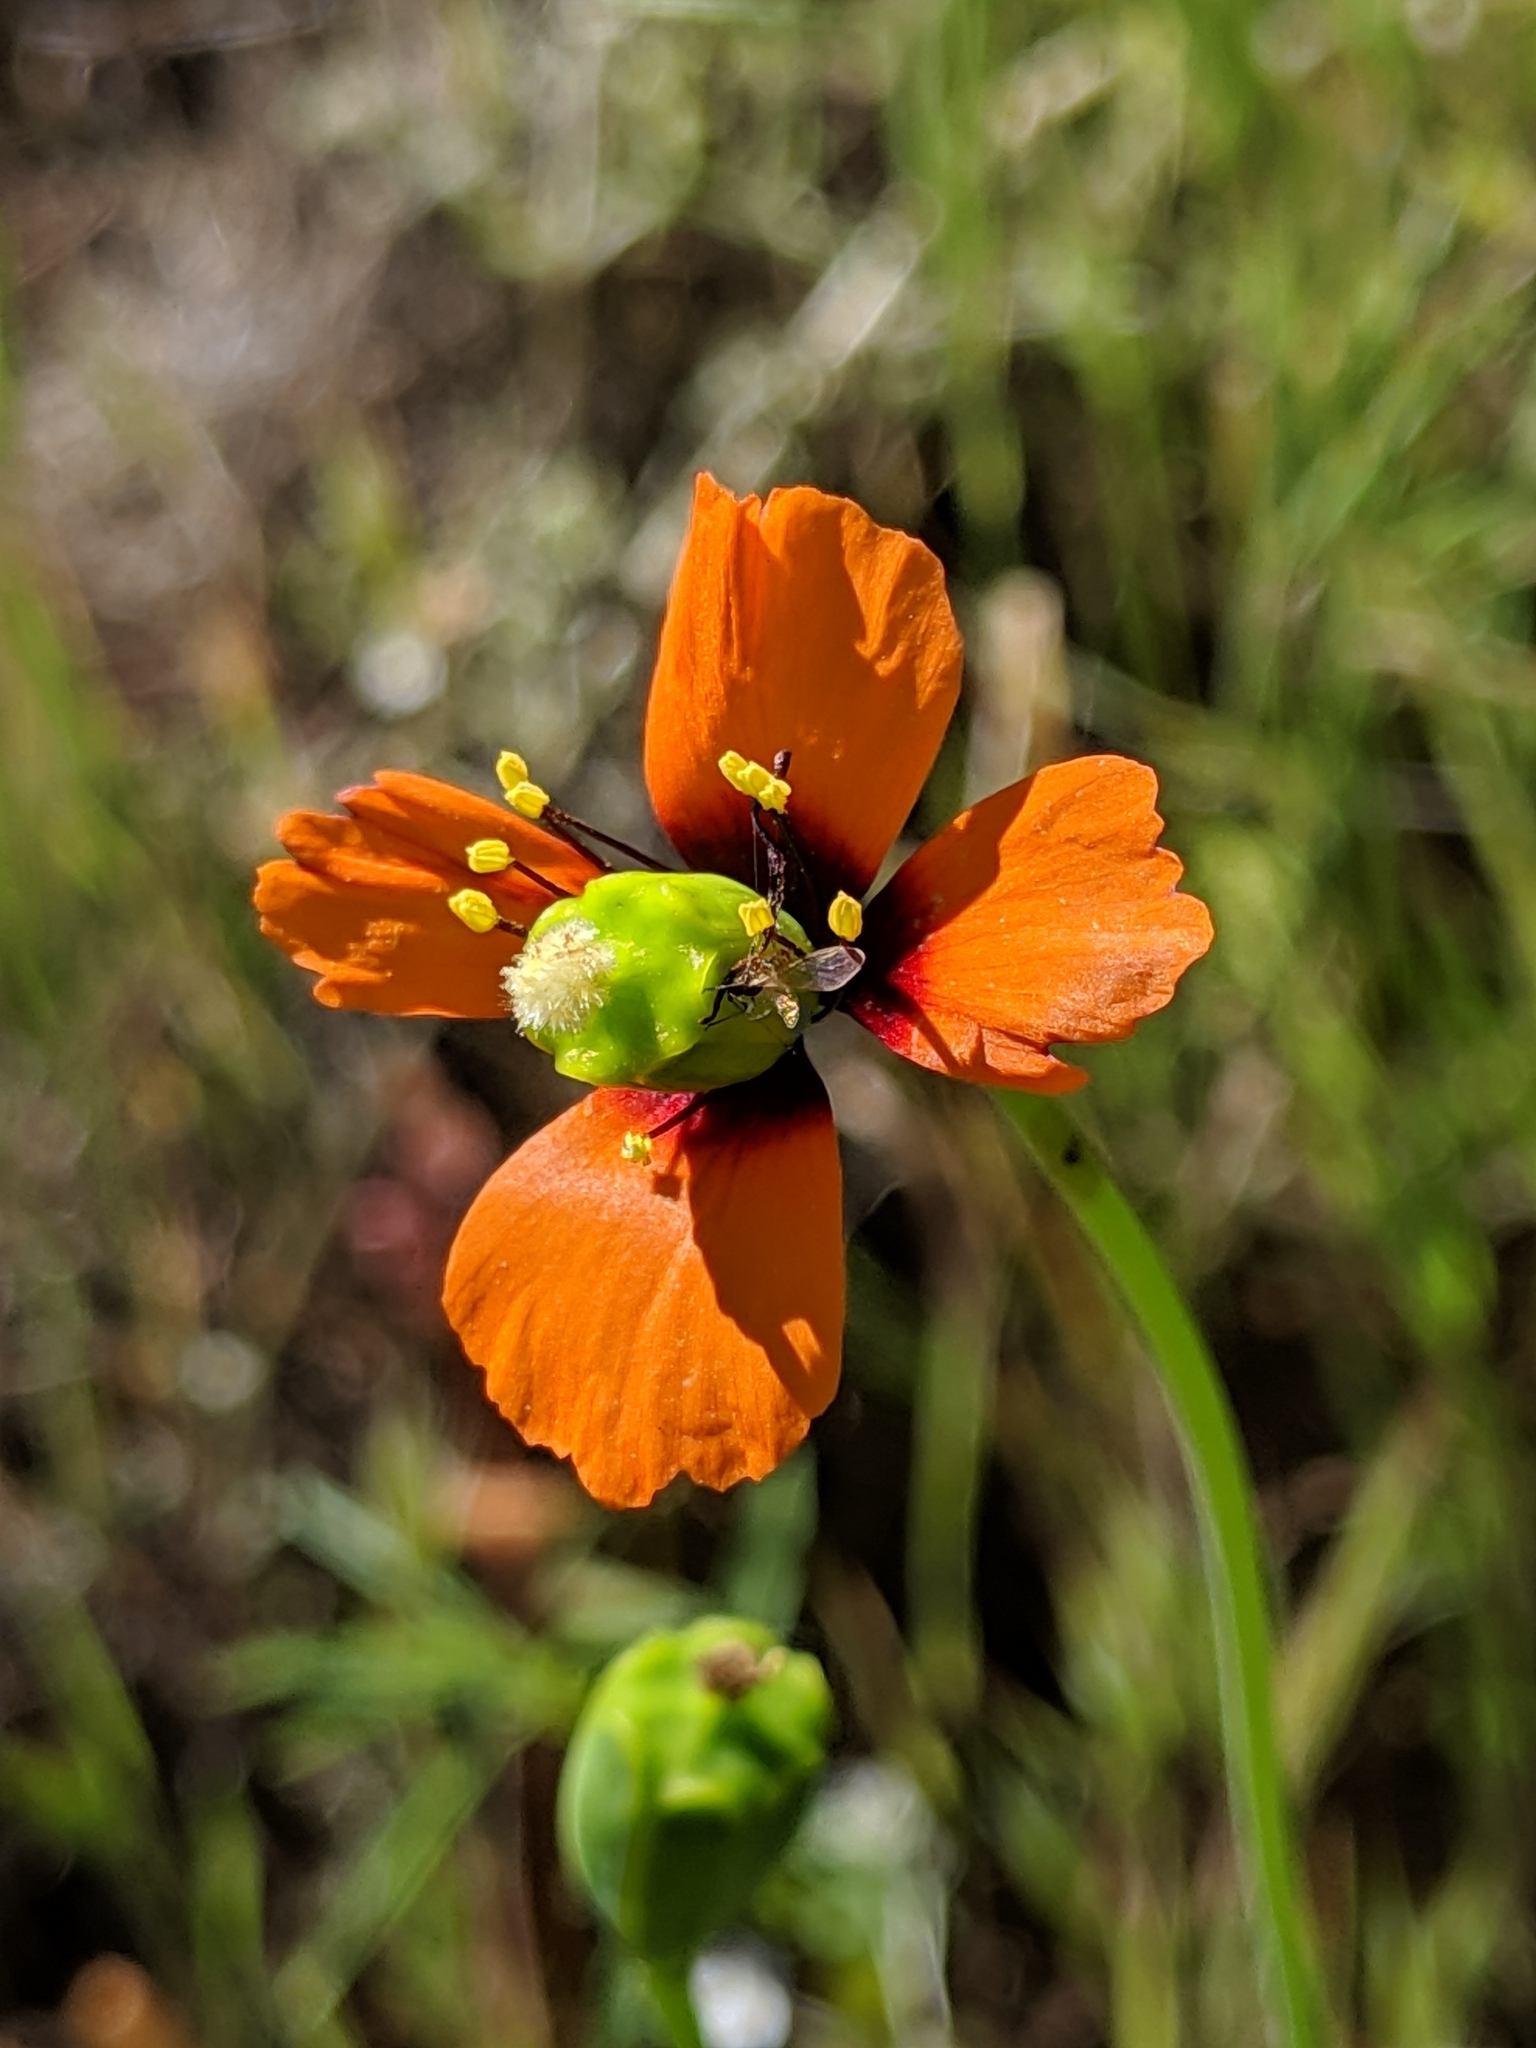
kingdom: Plantae
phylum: Tracheophyta
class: Magnoliopsida
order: Ranunculales
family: Papaveraceae
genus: Stylomecon
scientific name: Stylomecon heterophylla
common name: Flaming-poppy
